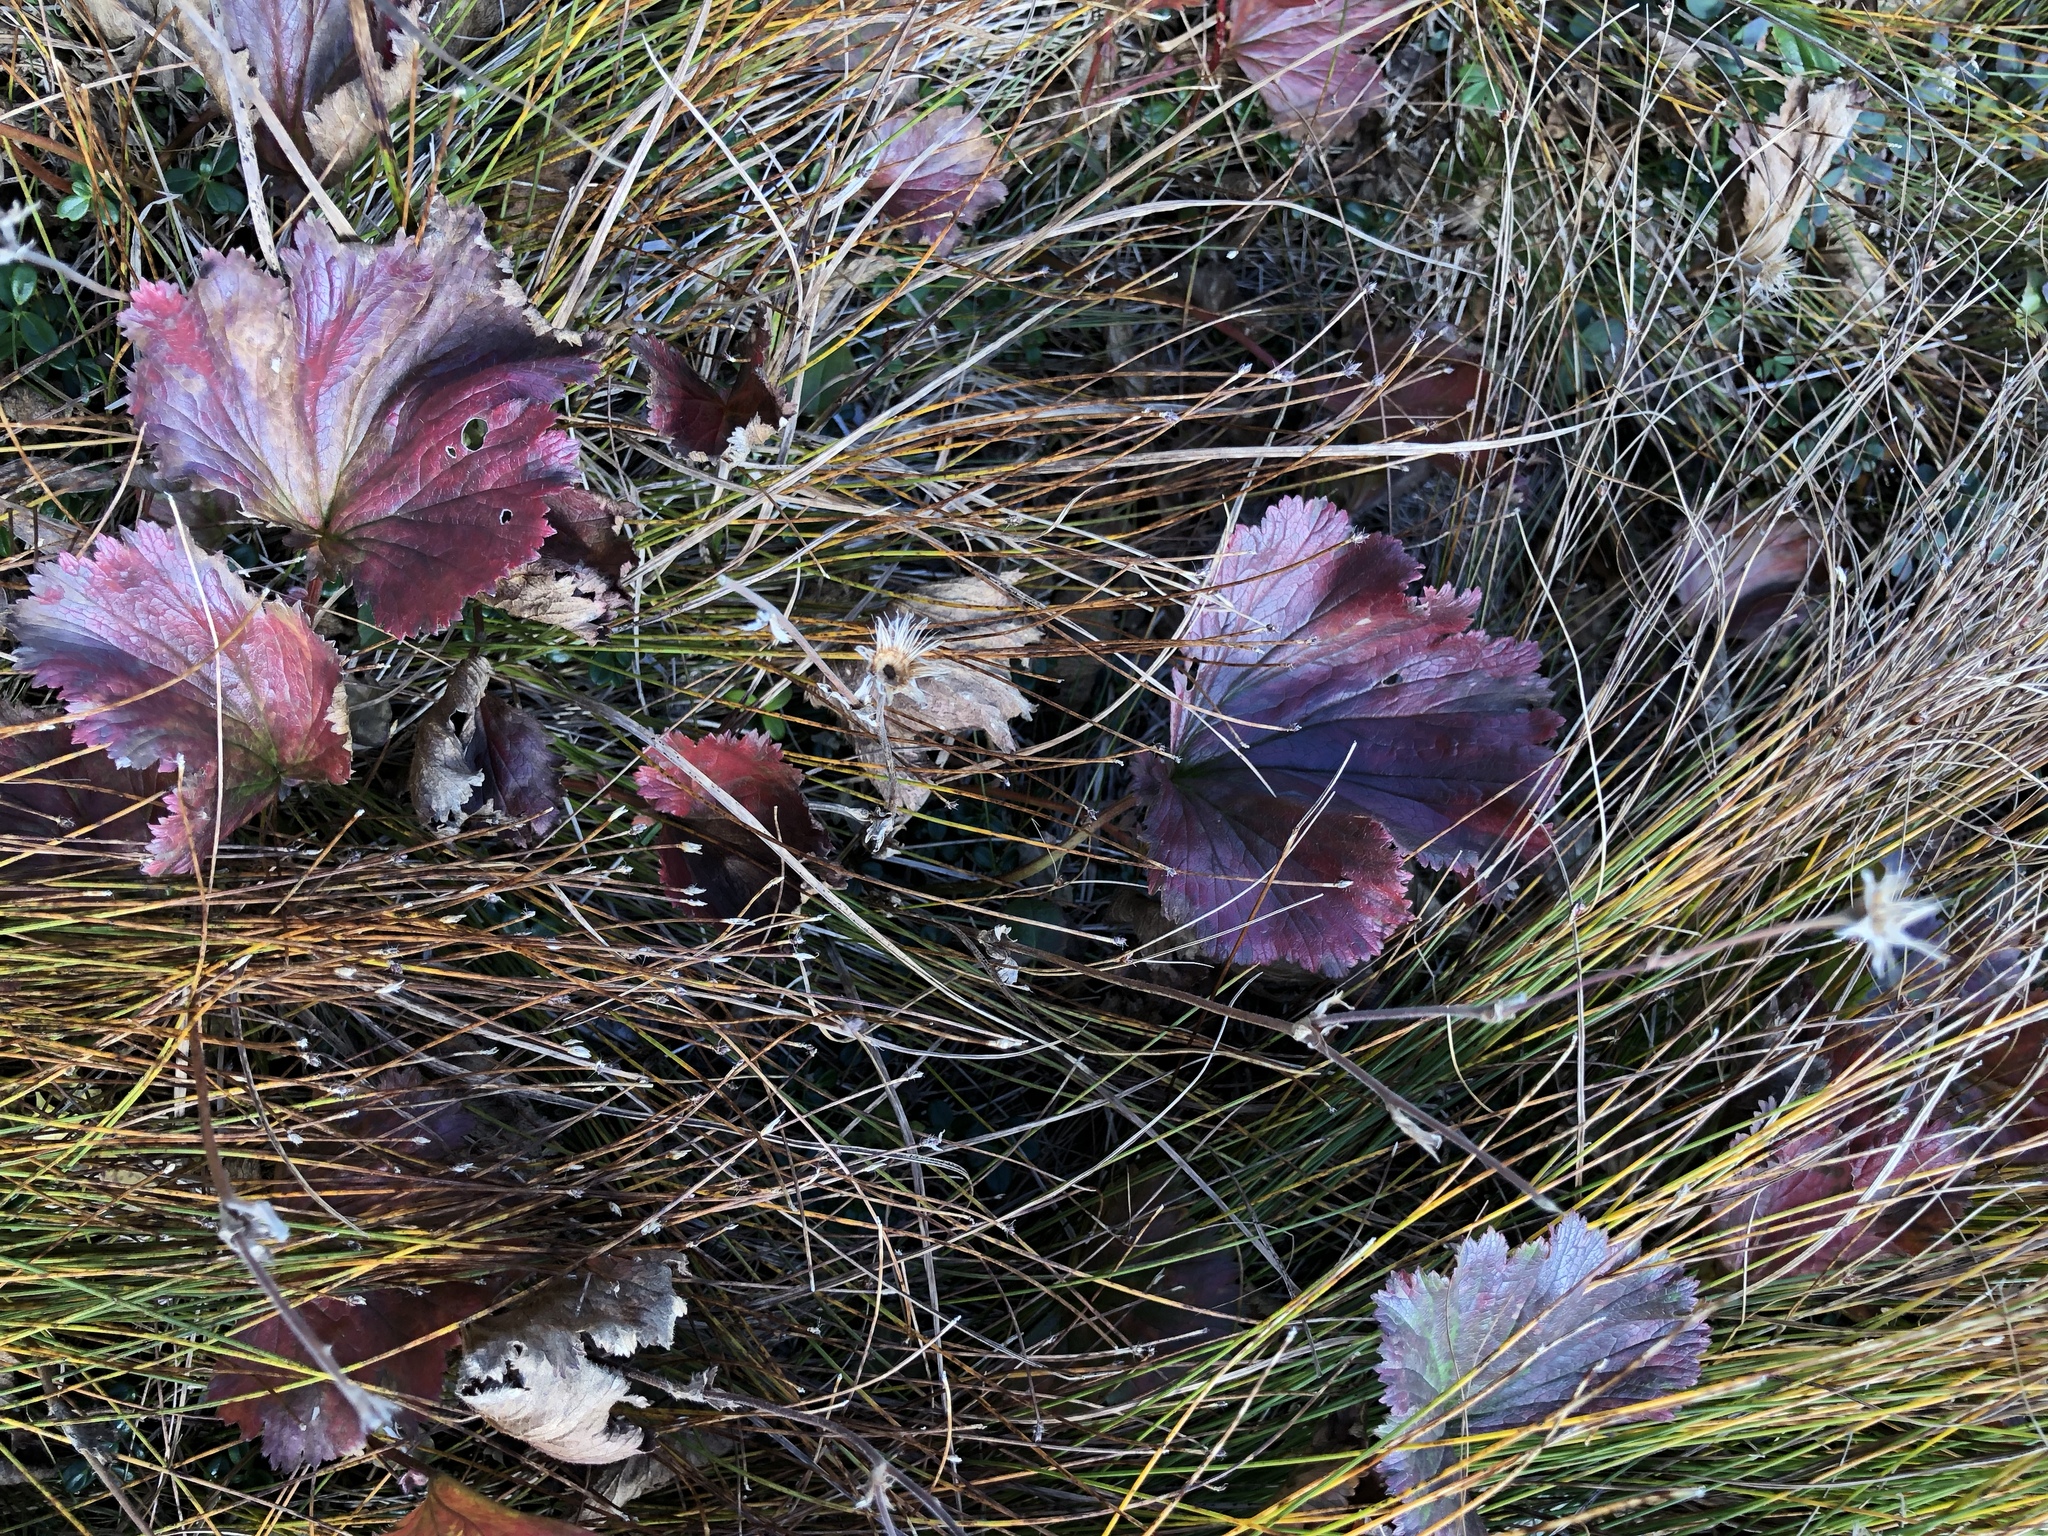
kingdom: Plantae
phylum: Tracheophyta
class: Magnoliopsida
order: Rosales
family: Rosaceae
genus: Geum
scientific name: Geum peckii
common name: Eastern mountain avens
